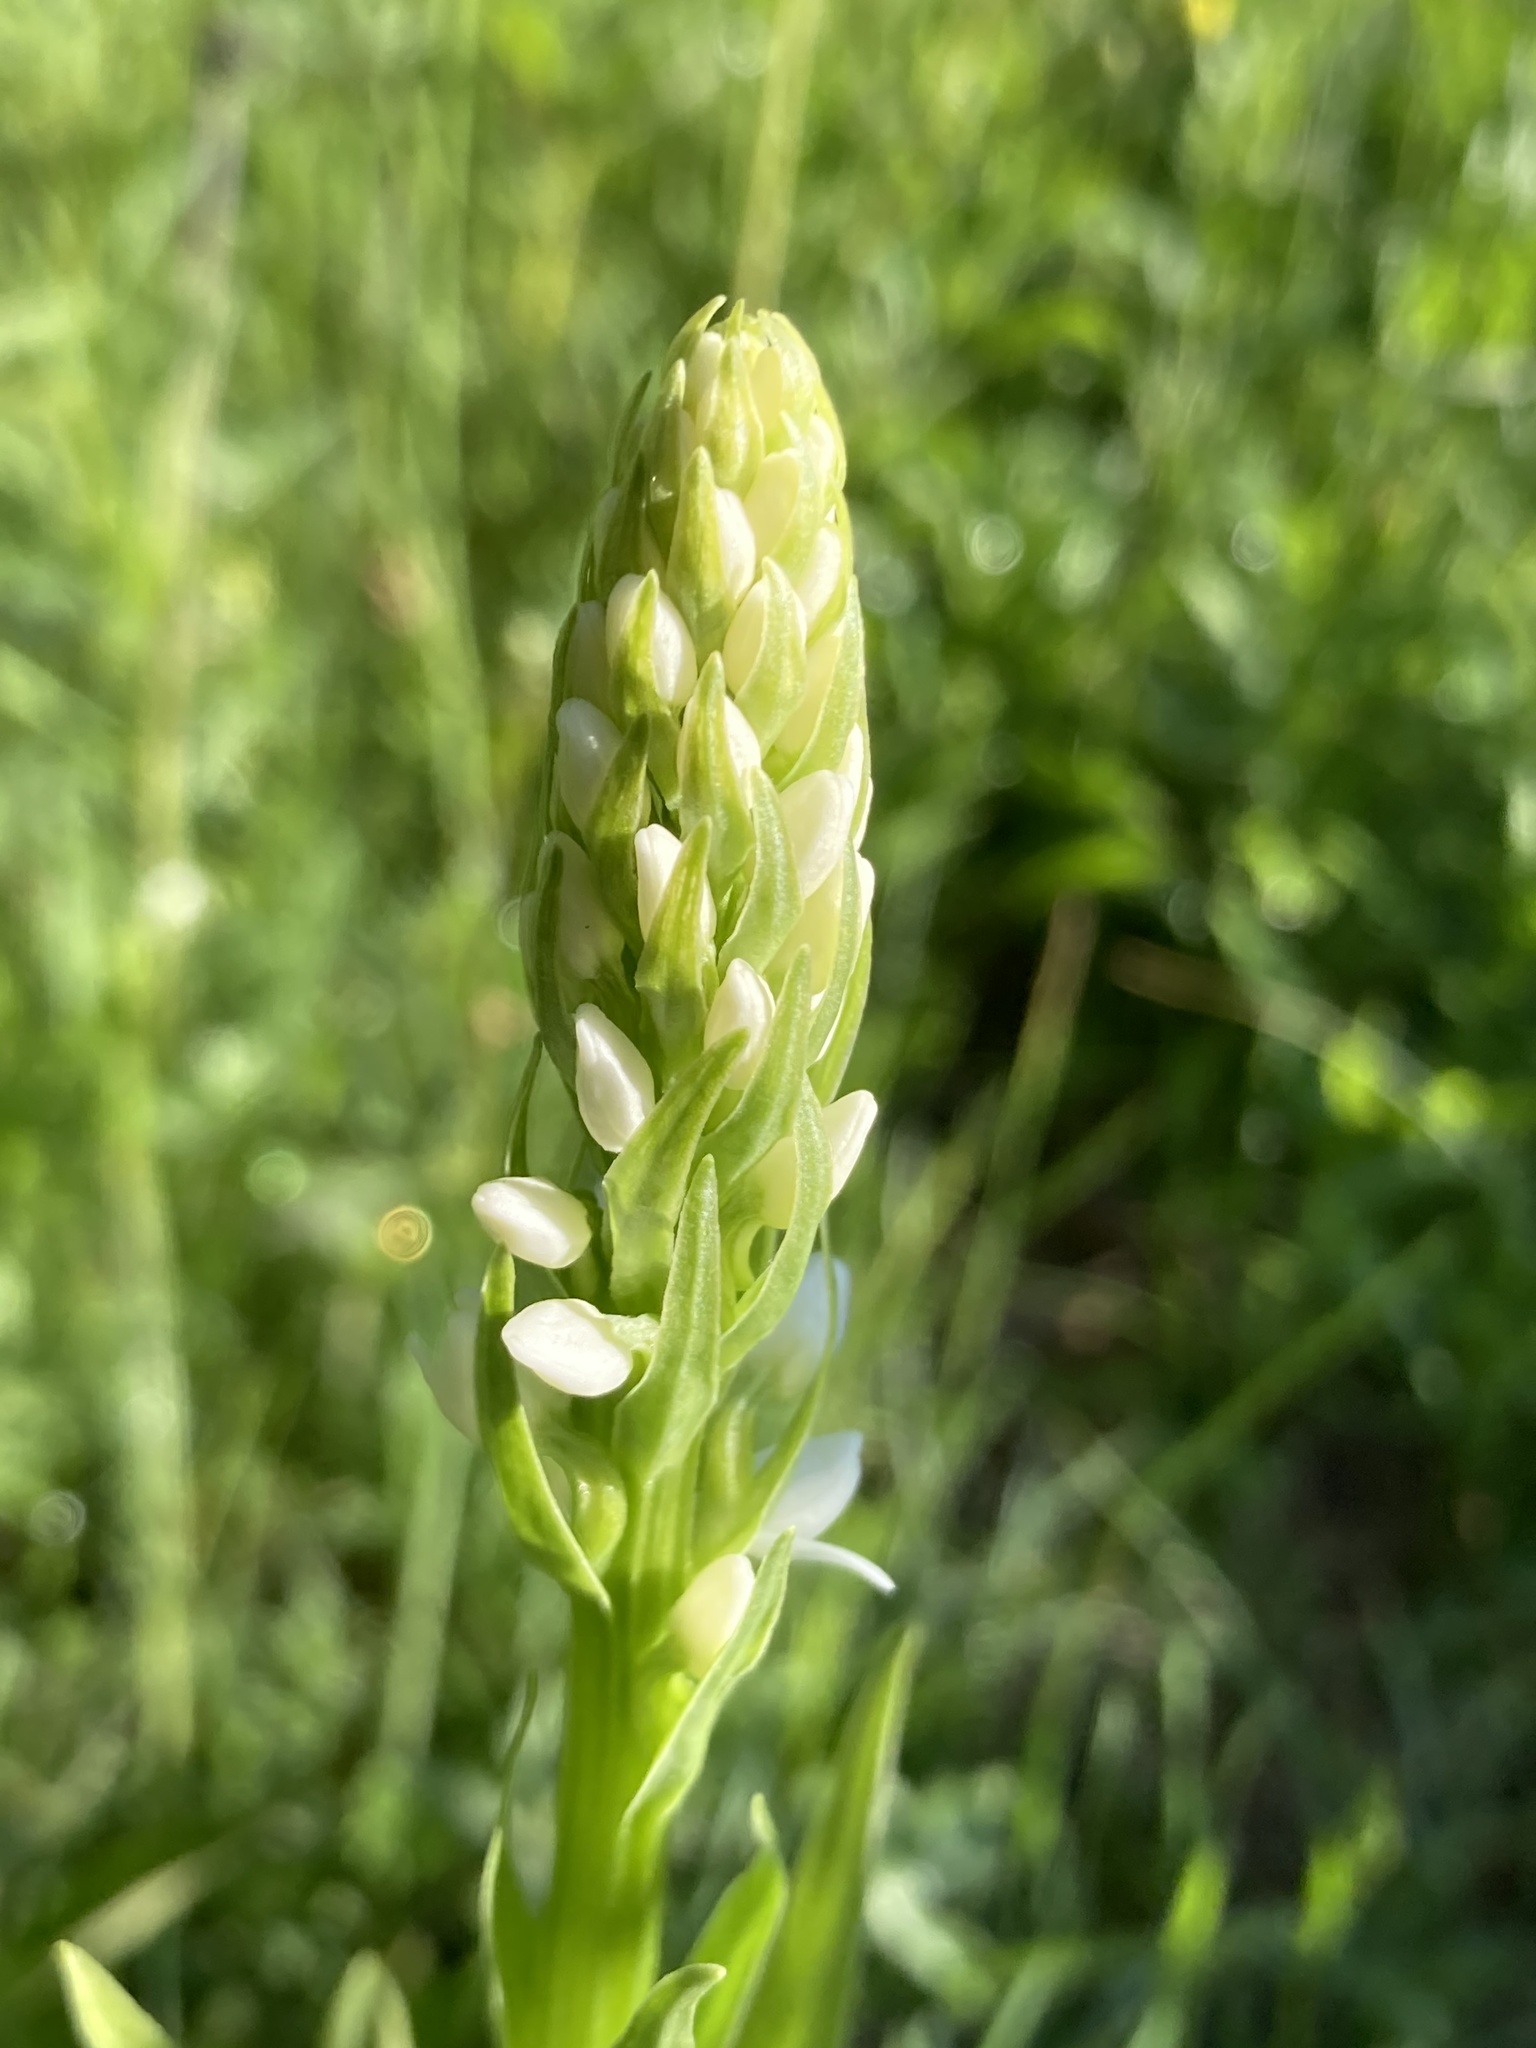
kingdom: Plantae
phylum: Tracheophyta
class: Liliopsida
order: Asparagales
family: Orchidaceae
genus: Platanthera
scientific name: Platanthera dilatata
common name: Bog candles
